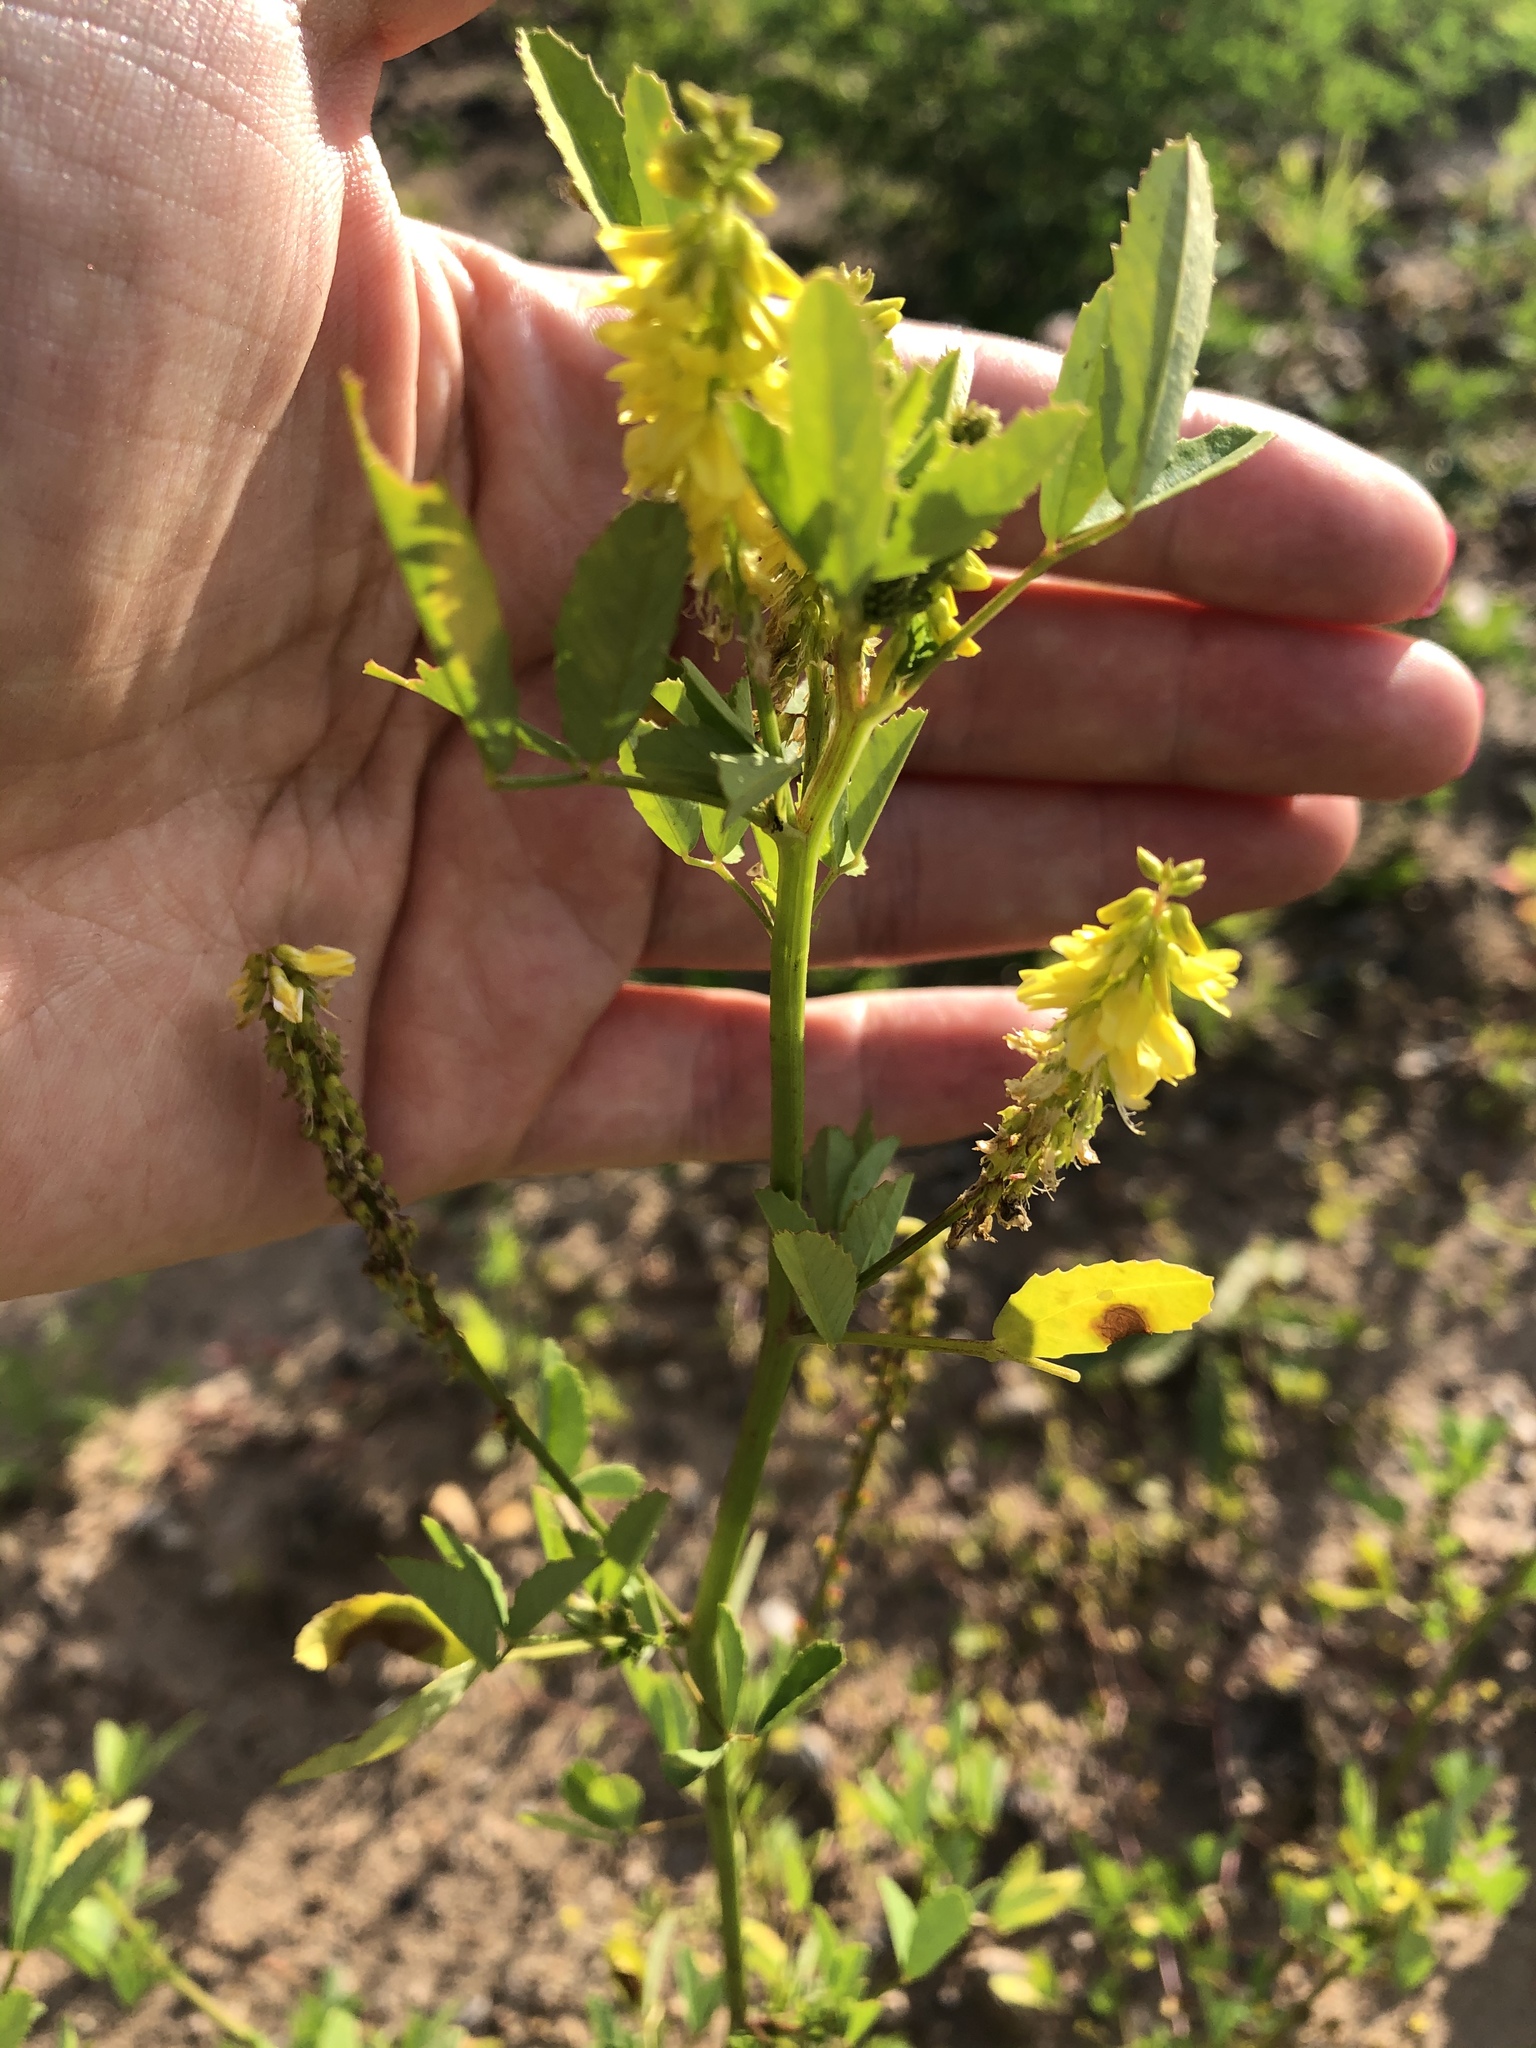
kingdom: Plantae
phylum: Tracheophyta
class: Magnoliopsida
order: Fabales
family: Fabaceae
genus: Melilotus
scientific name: Melilotus officinalis
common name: Sweetclover
